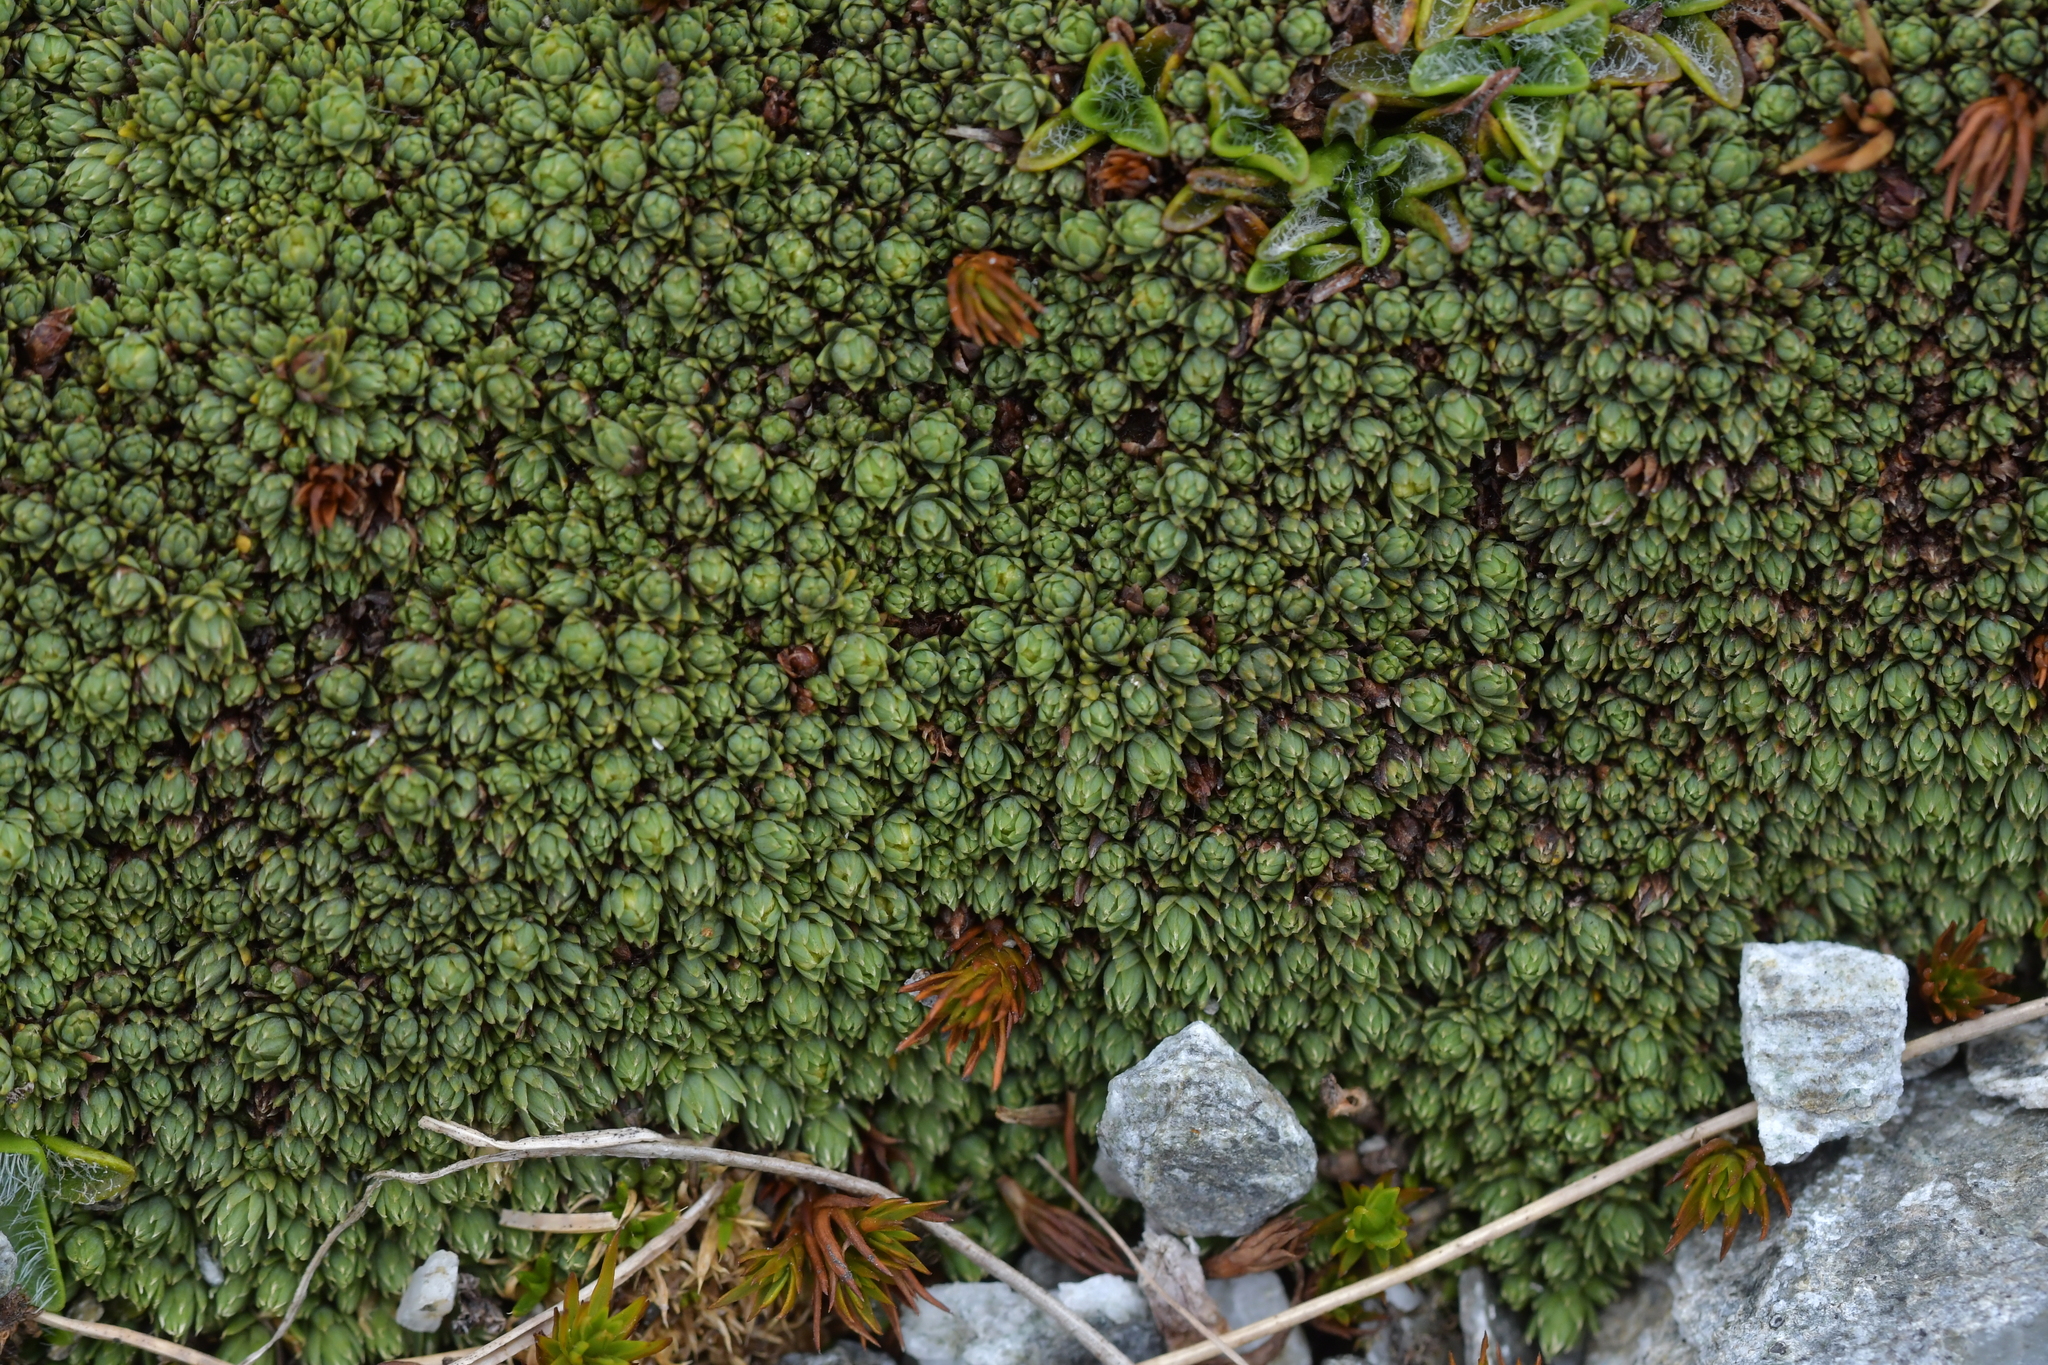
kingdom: Plantae
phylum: Tracheophyta
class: Magnoliopsida
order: Malvales
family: Thymelaeaceae
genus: Kelleria
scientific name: Kelleria croizatii
